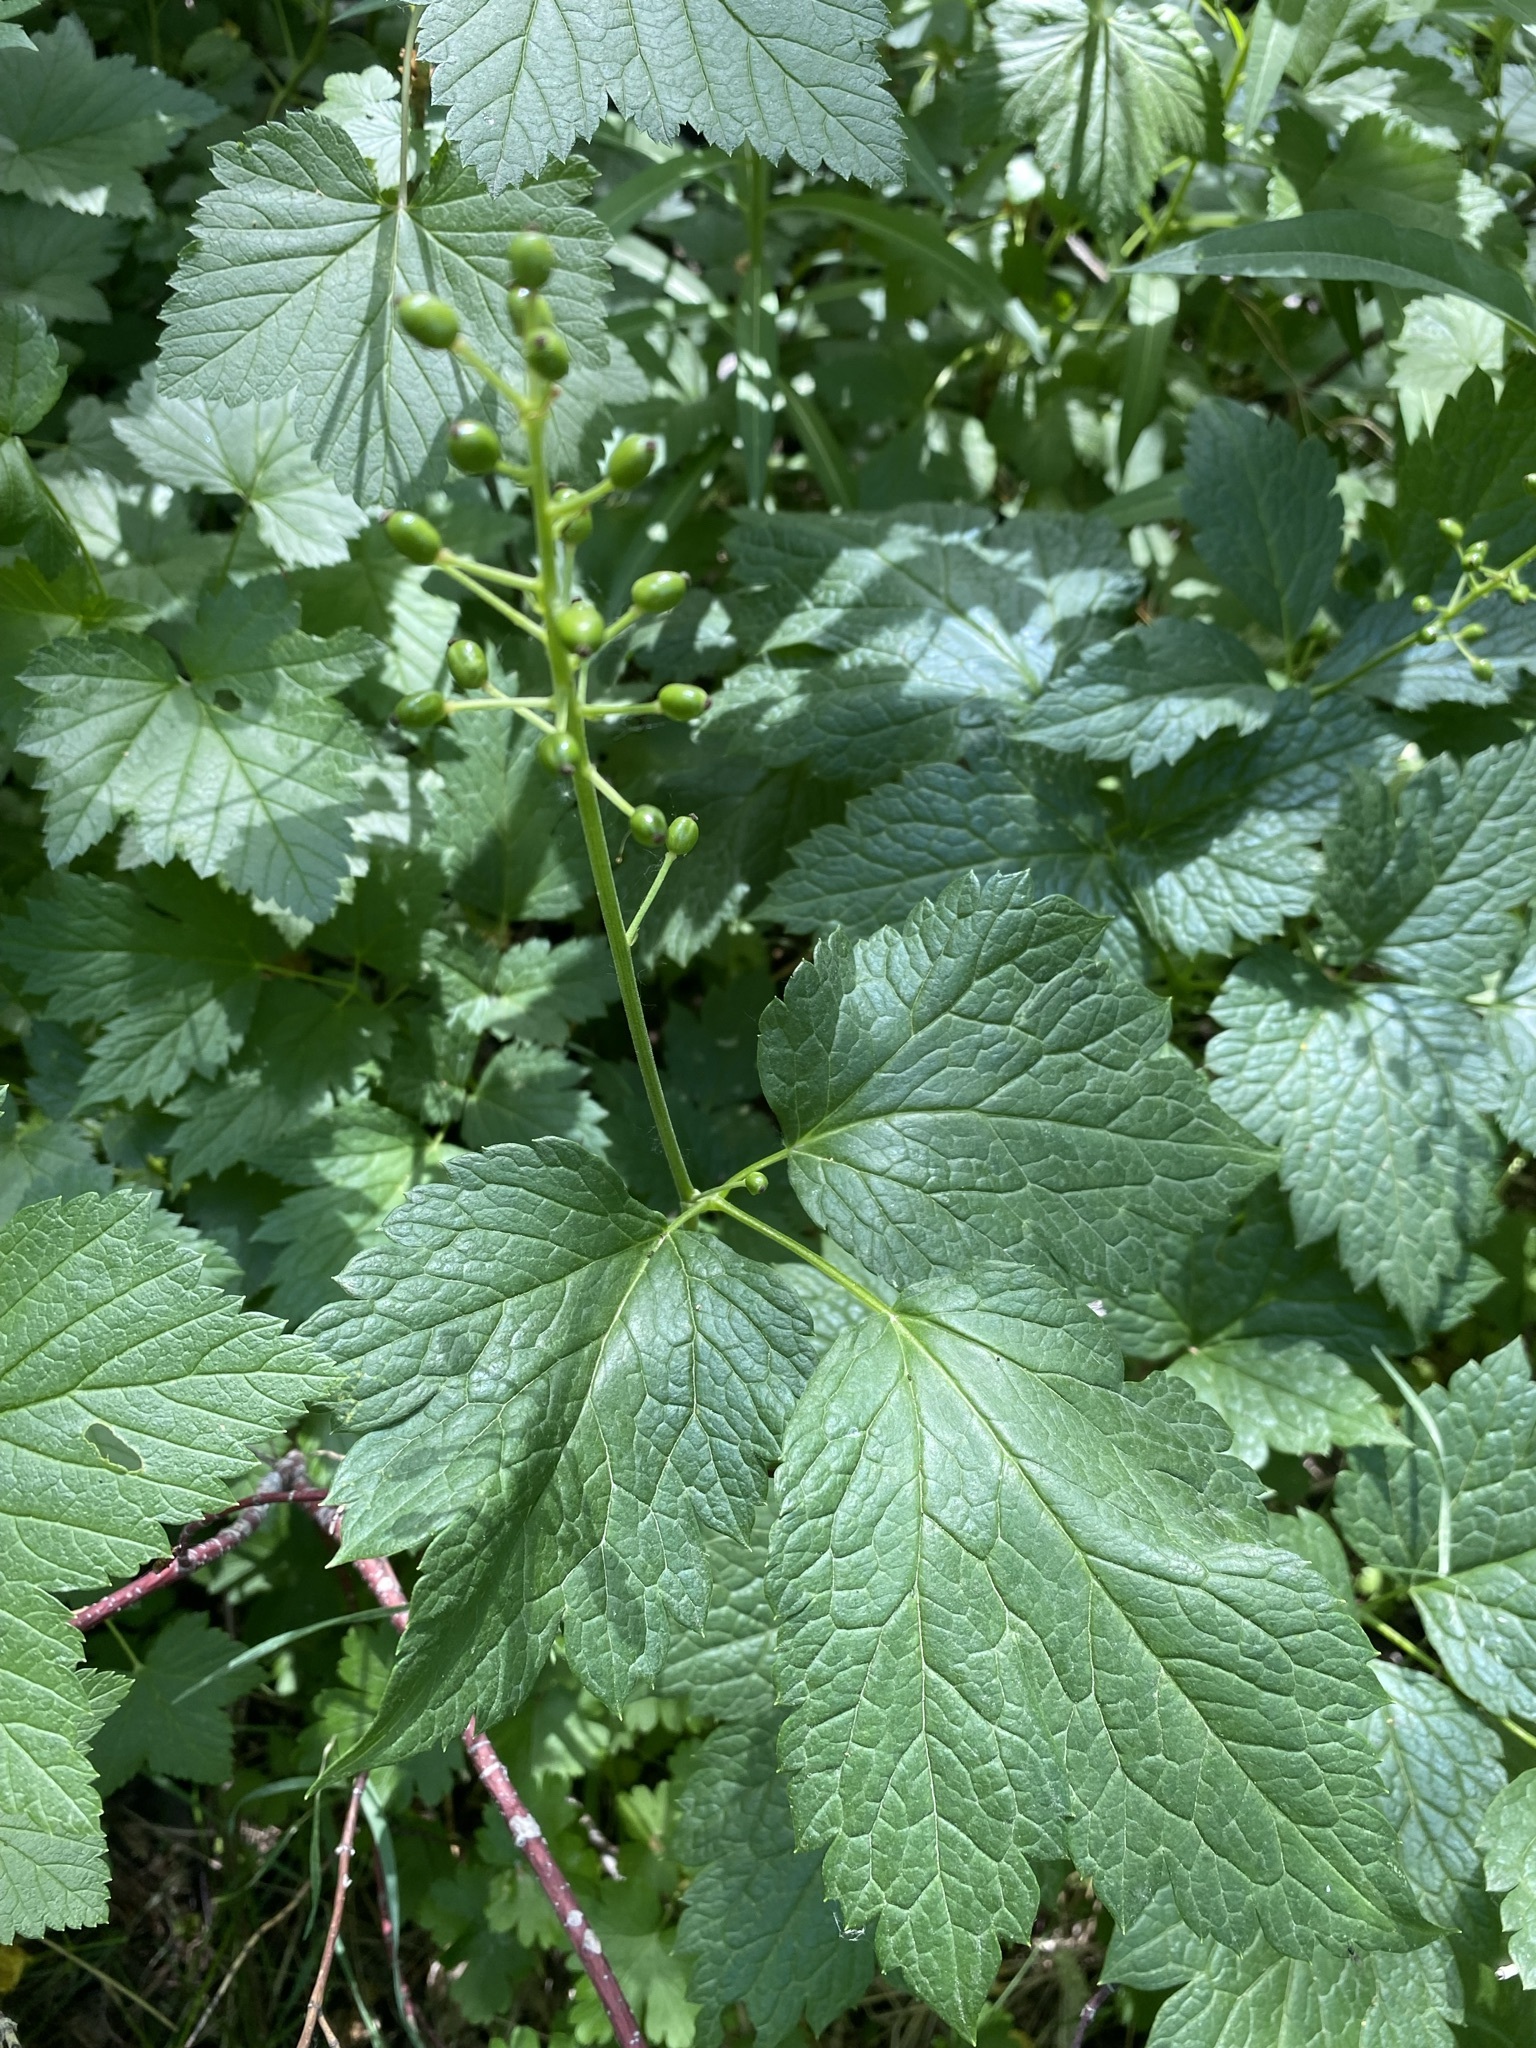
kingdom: Plantae
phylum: Tracheophyta
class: Magnoliopsida
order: Ranunculales
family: Ranunculaceae
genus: Actaea
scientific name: Actaea rubra
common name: Red baneberry
